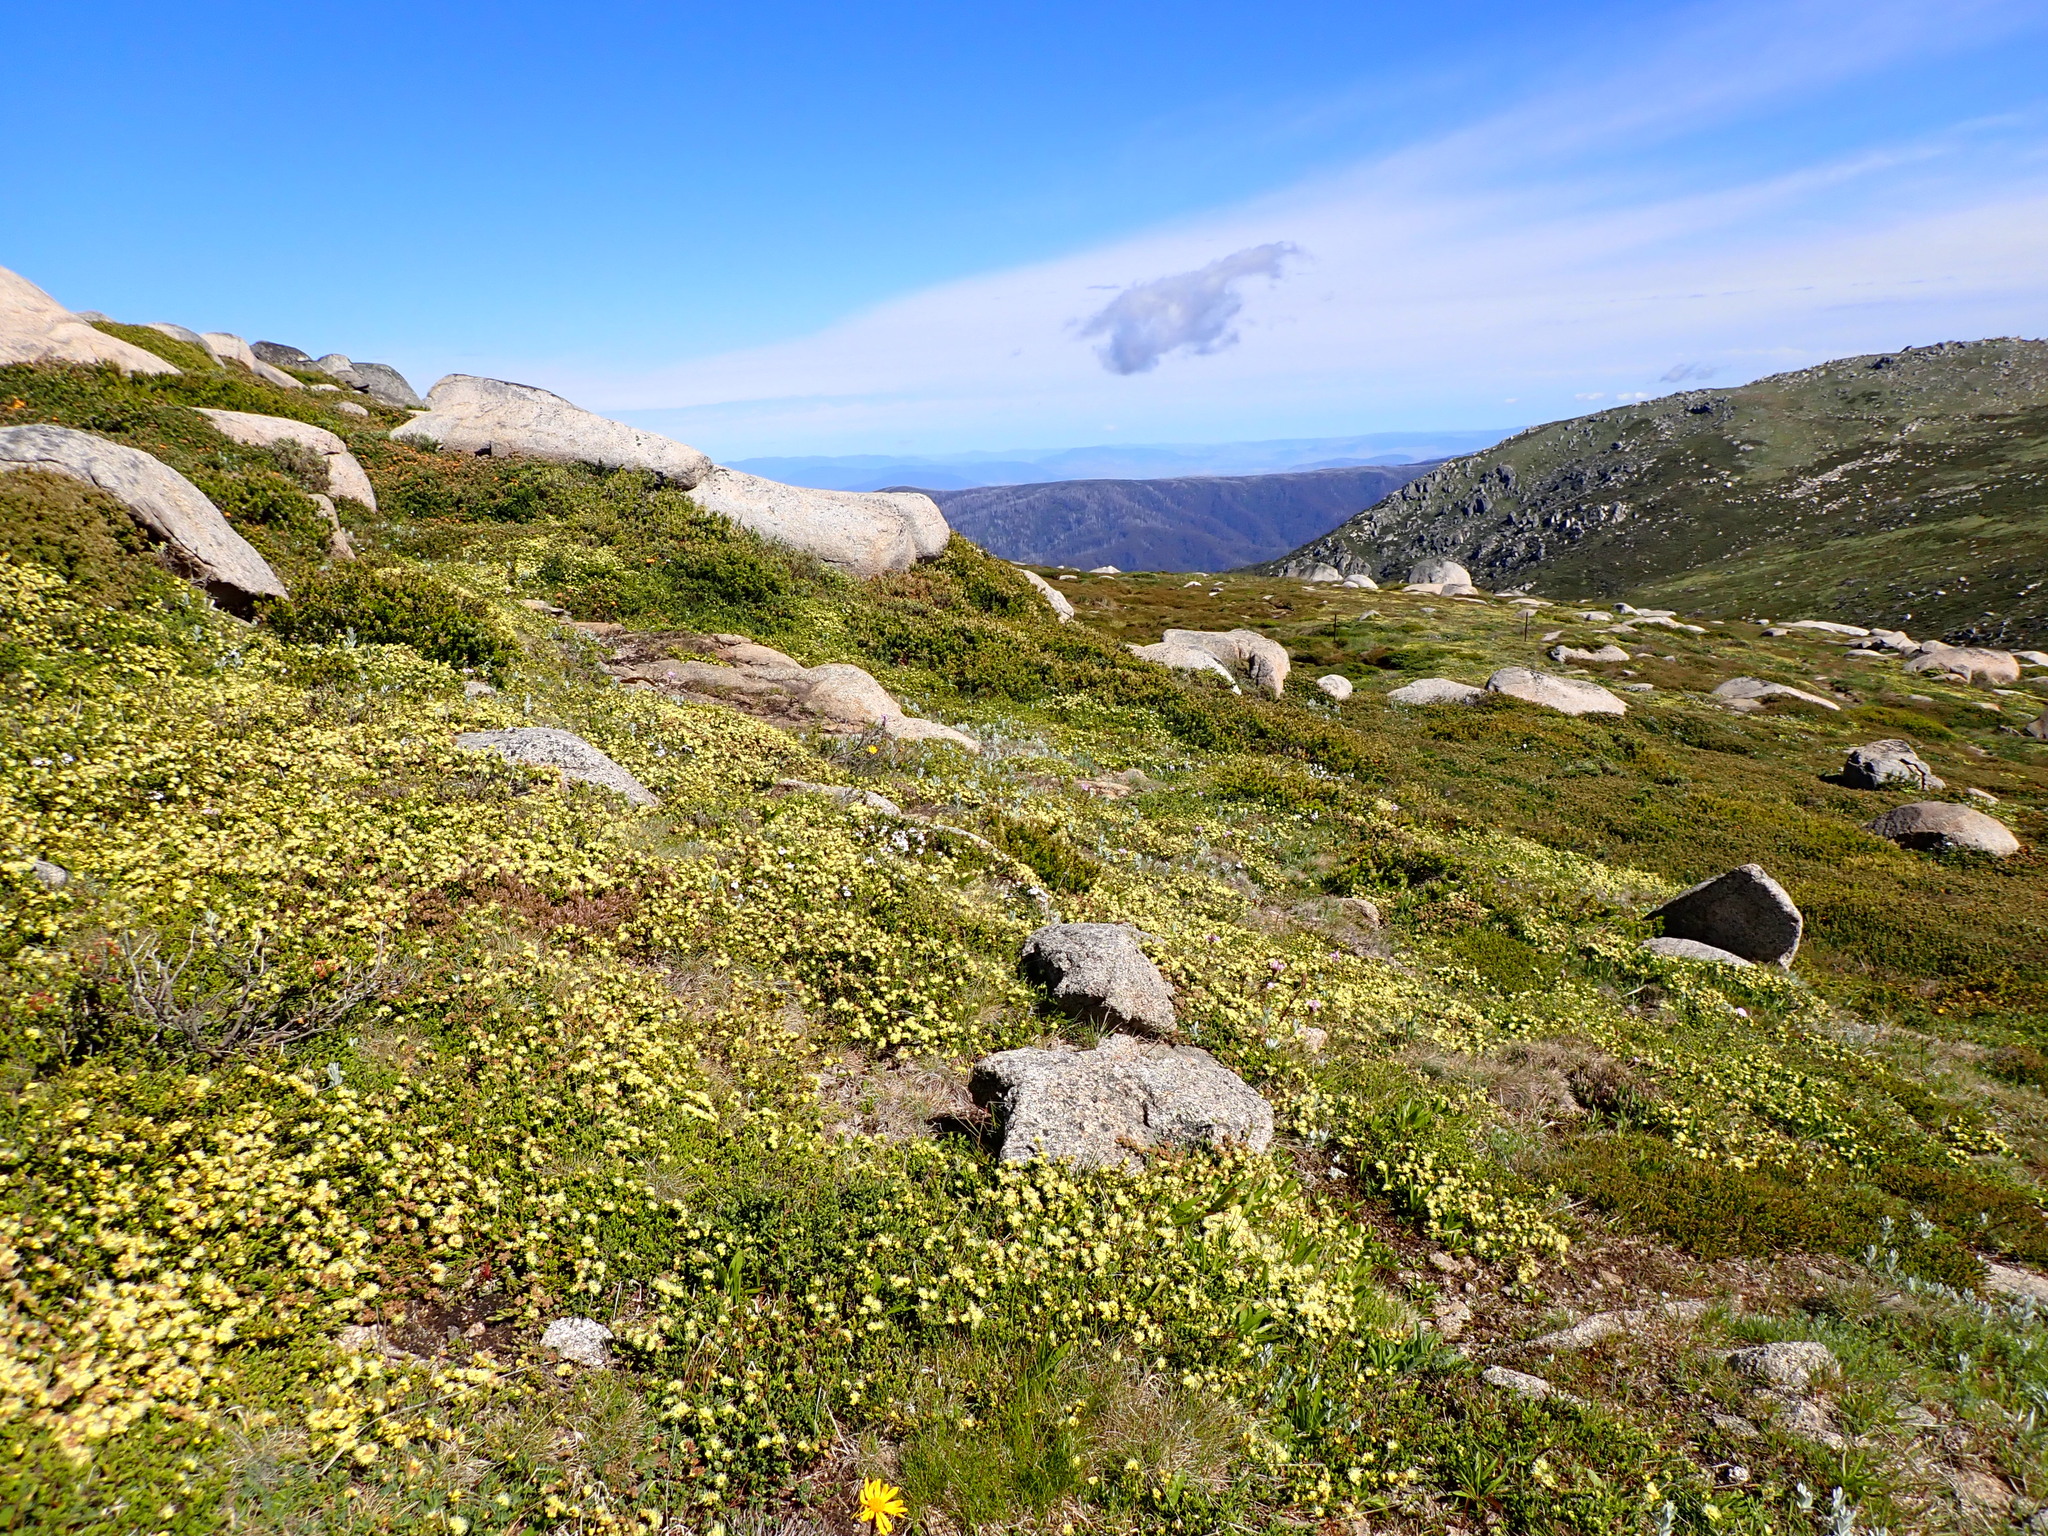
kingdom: Plantae
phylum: Tracheophyta
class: Magnoliopsida
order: Myrtales
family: Myrtaceae
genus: Kunzea
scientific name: Kunzea muelleri
